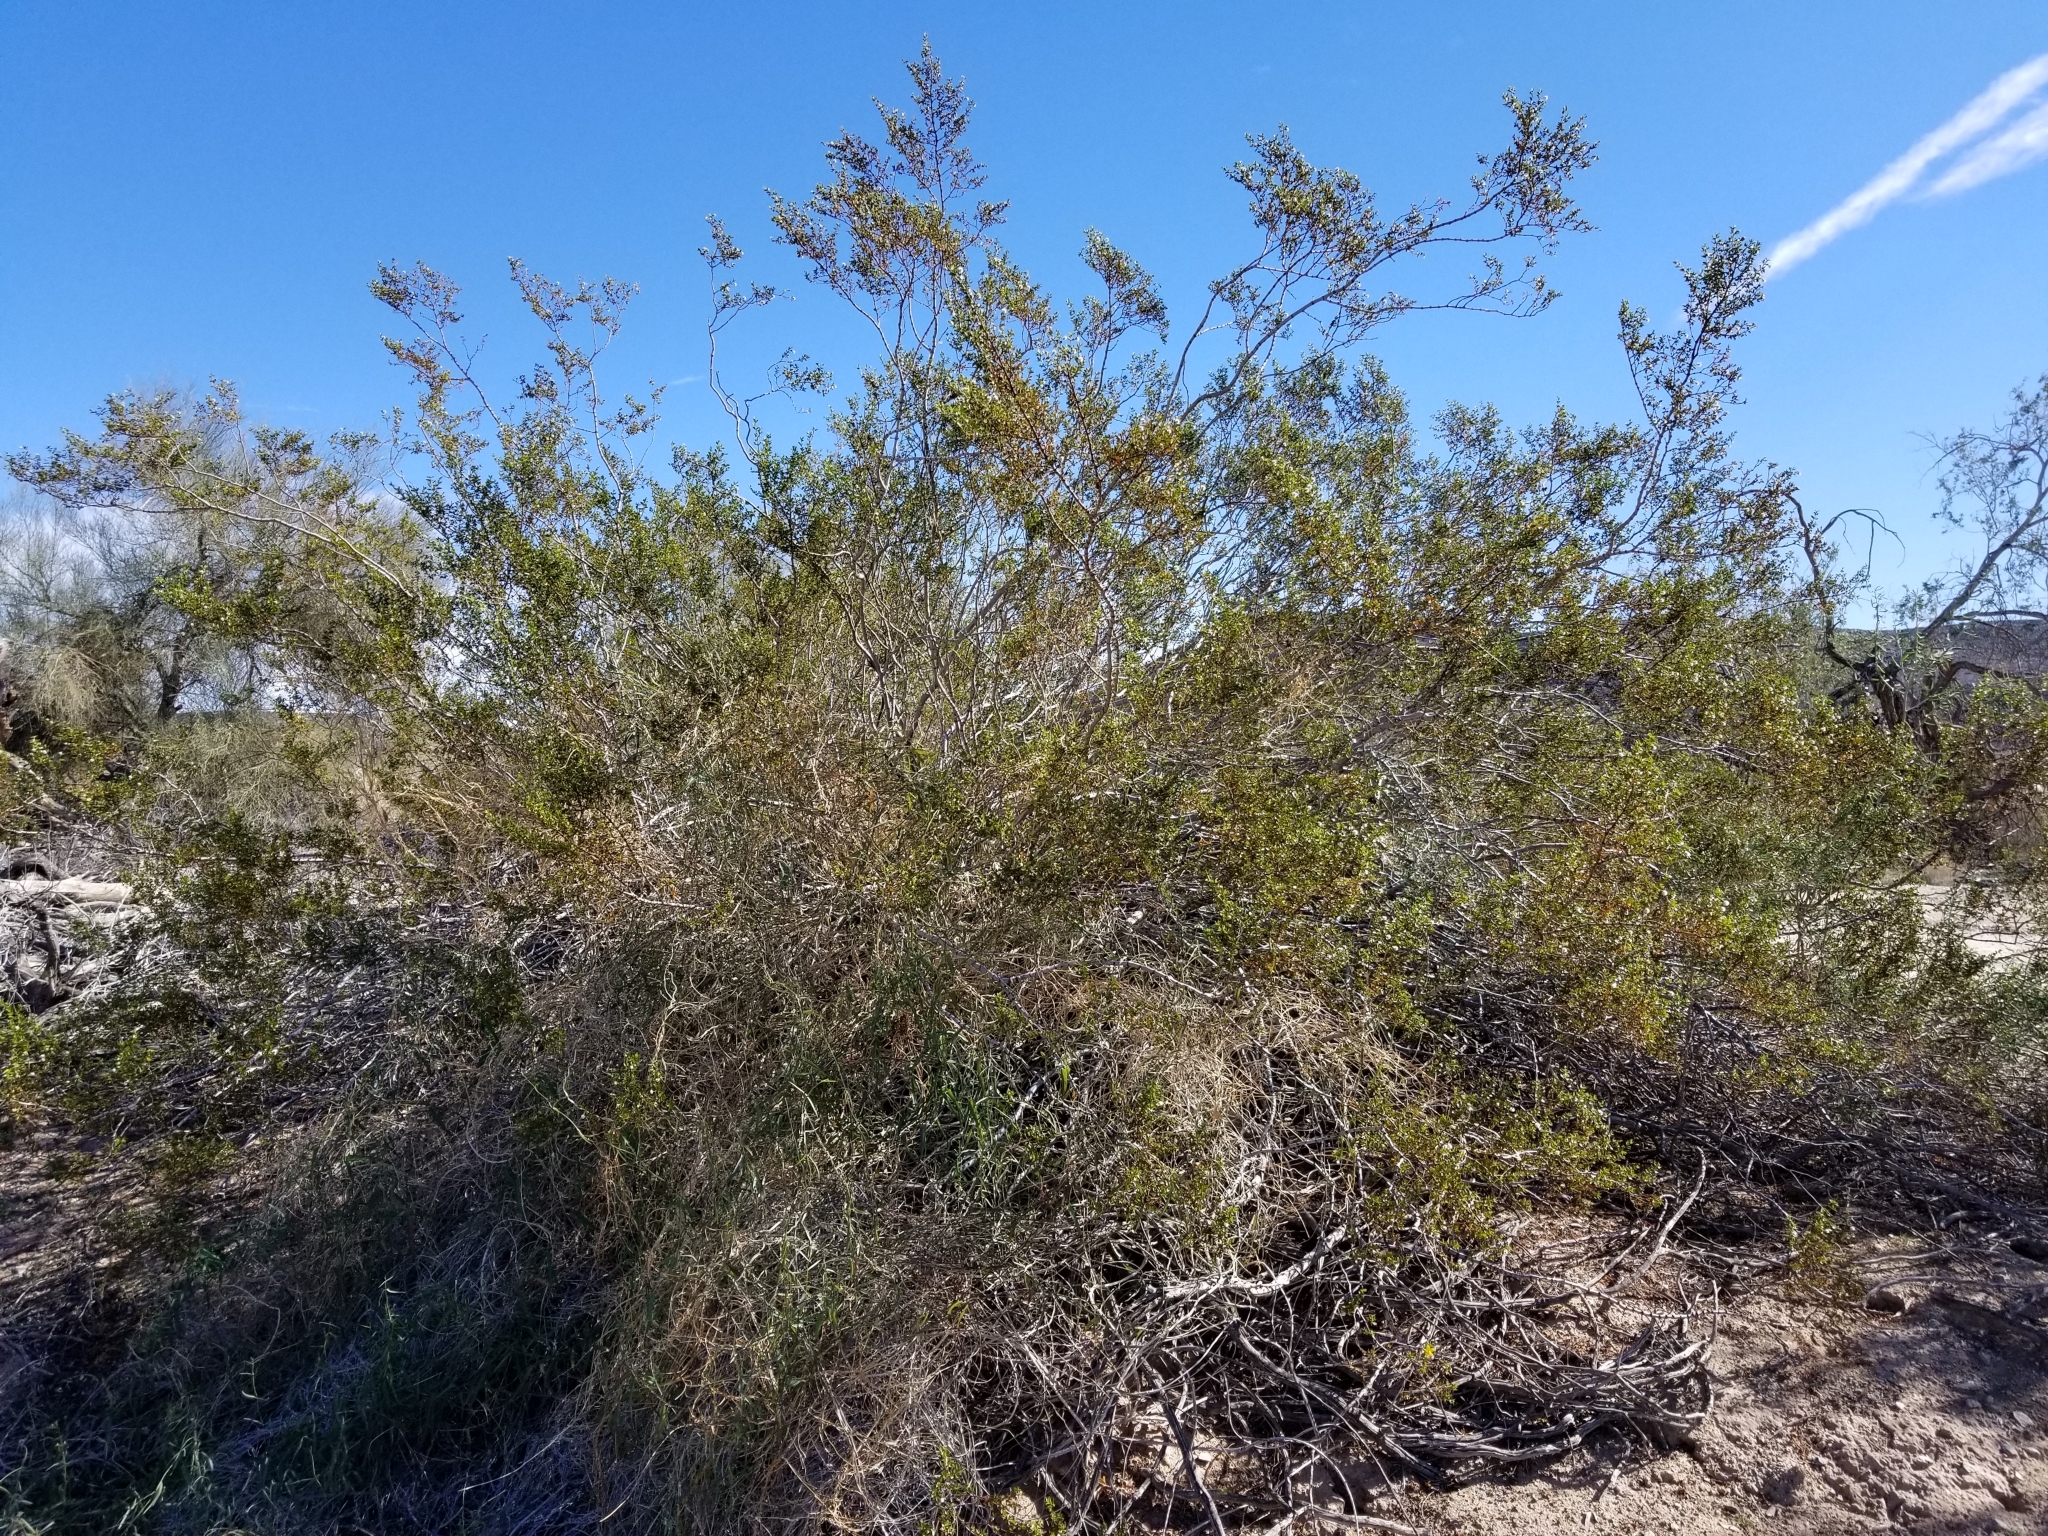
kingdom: Plantae
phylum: Tracheophyta
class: Magnoliopsida
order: Zygophyllales
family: Zygophyllaceae
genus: Larrea
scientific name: Larrea tridentata
